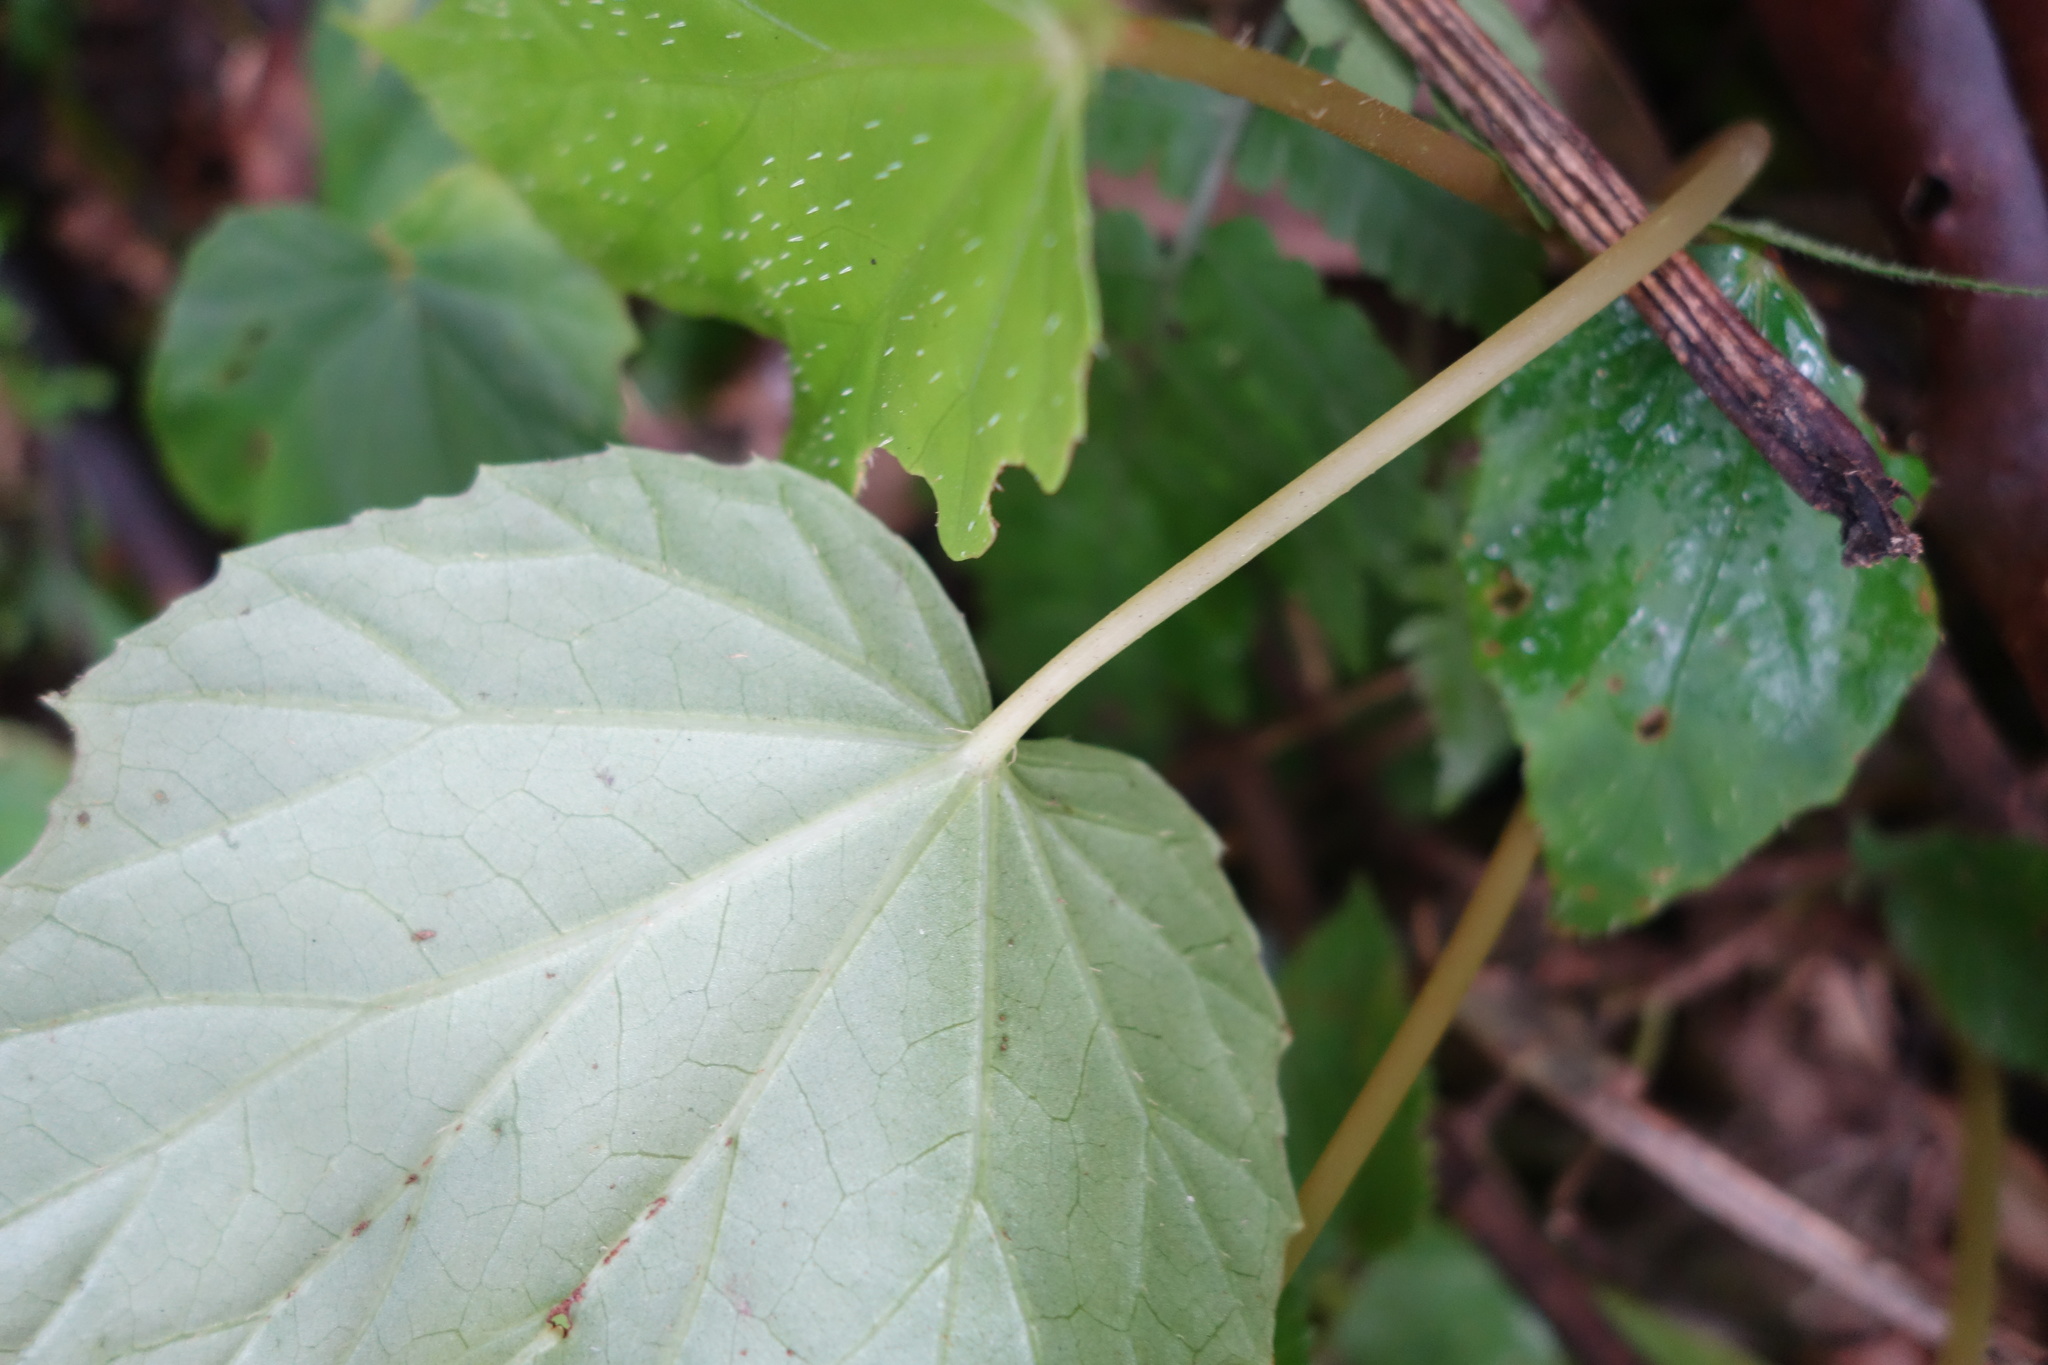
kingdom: Plantae
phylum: Tracheophyta
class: Magnoliopsida
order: Cucurbitales
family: Begoniaceae
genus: Begonia
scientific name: Begonia formosana
